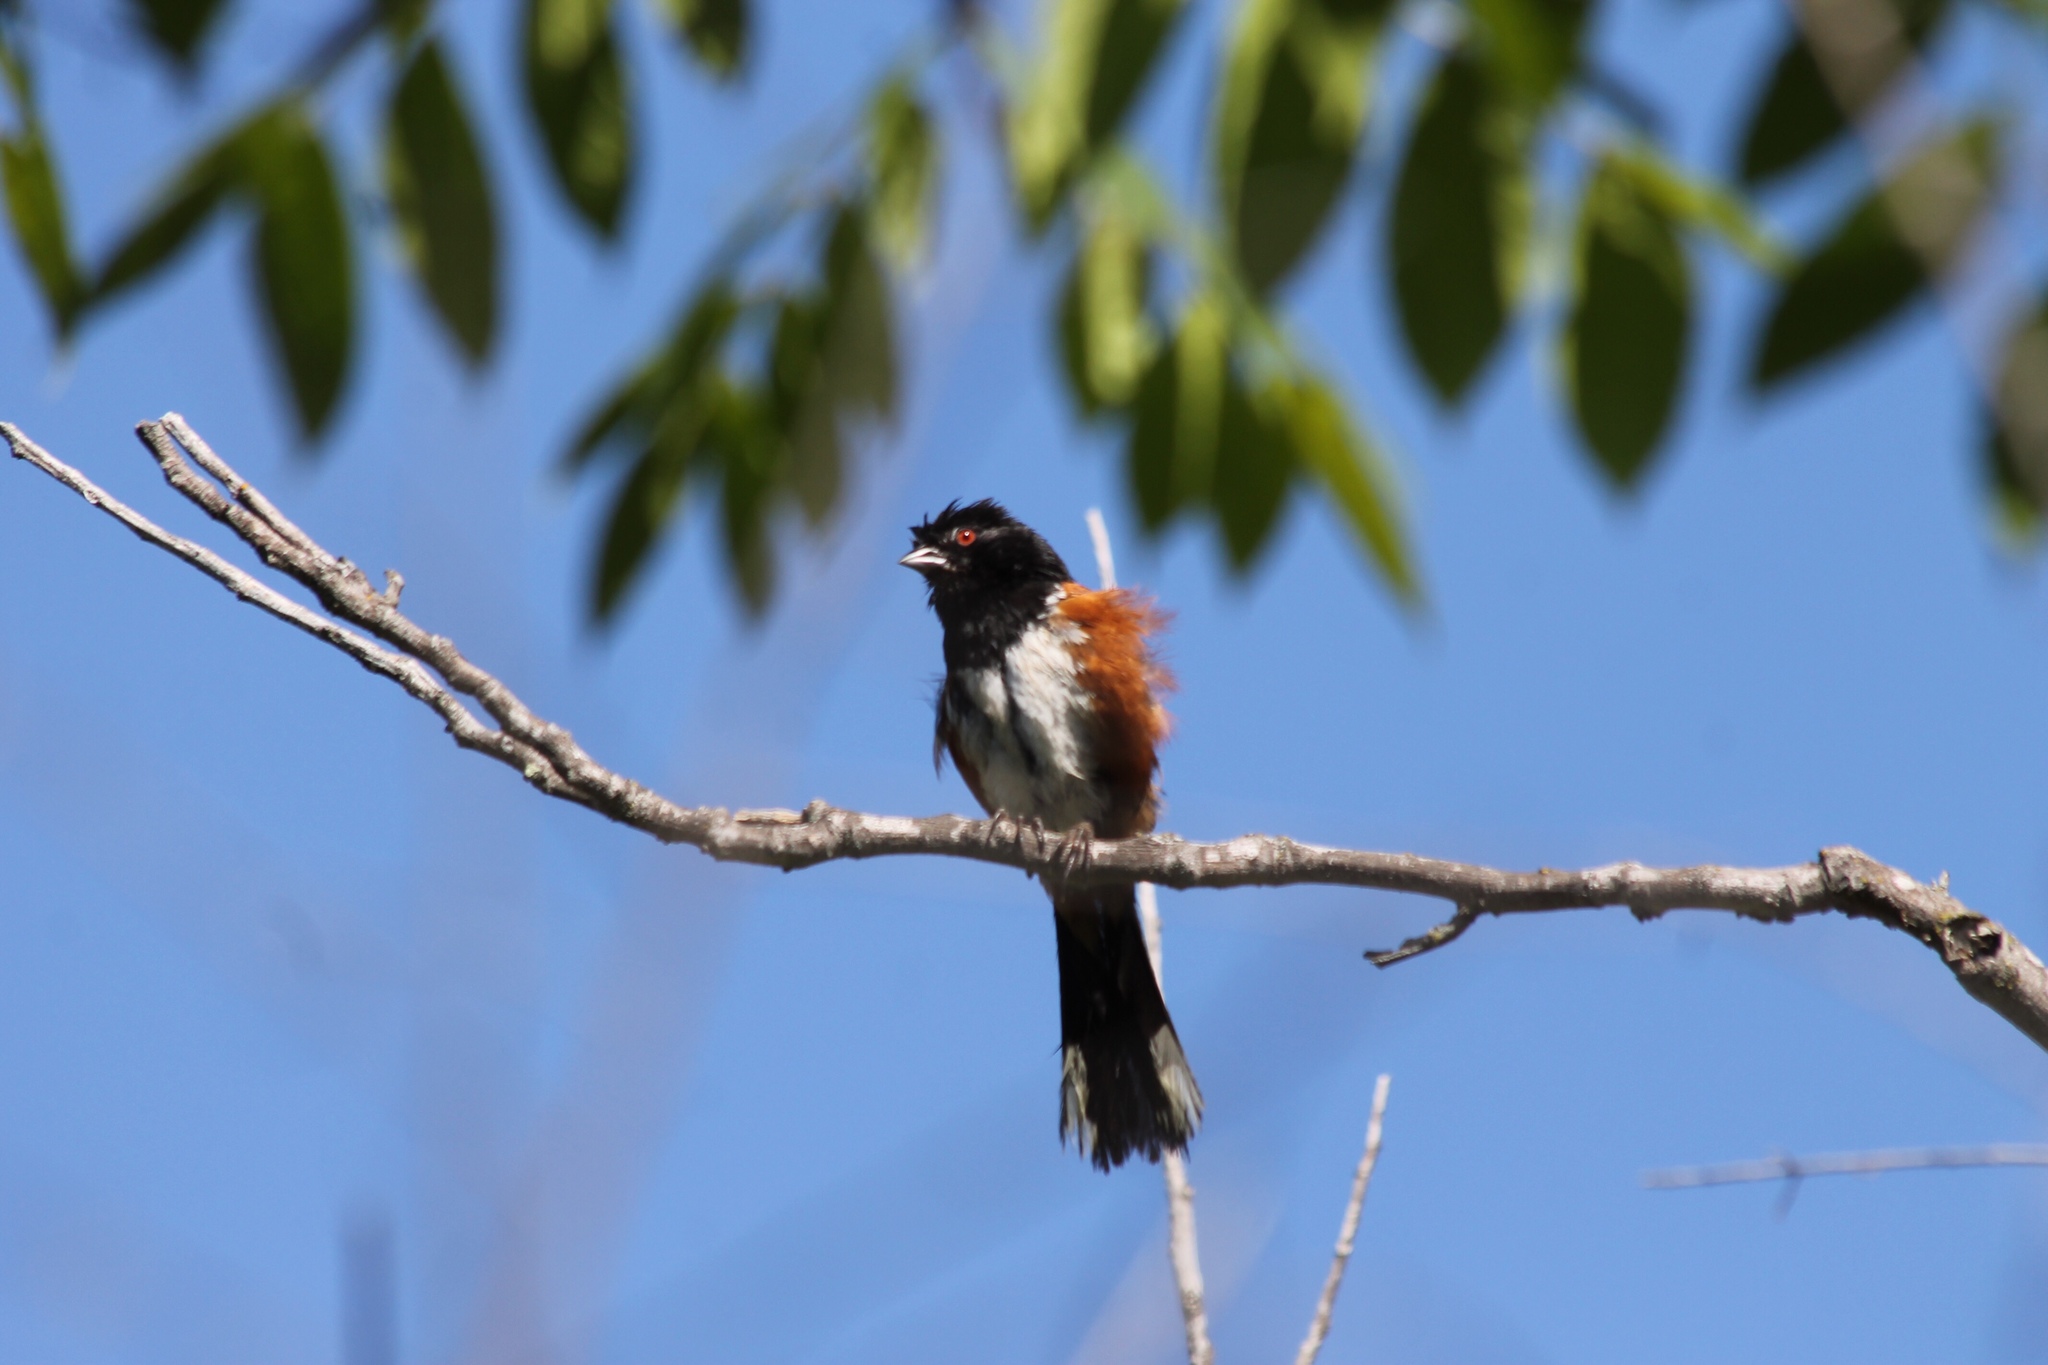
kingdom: Animalia
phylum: Chordata
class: Aves
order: Passeriformes
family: Passerellidae
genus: Pipilo
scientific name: Pipilo maculatus
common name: Spotted towhee
